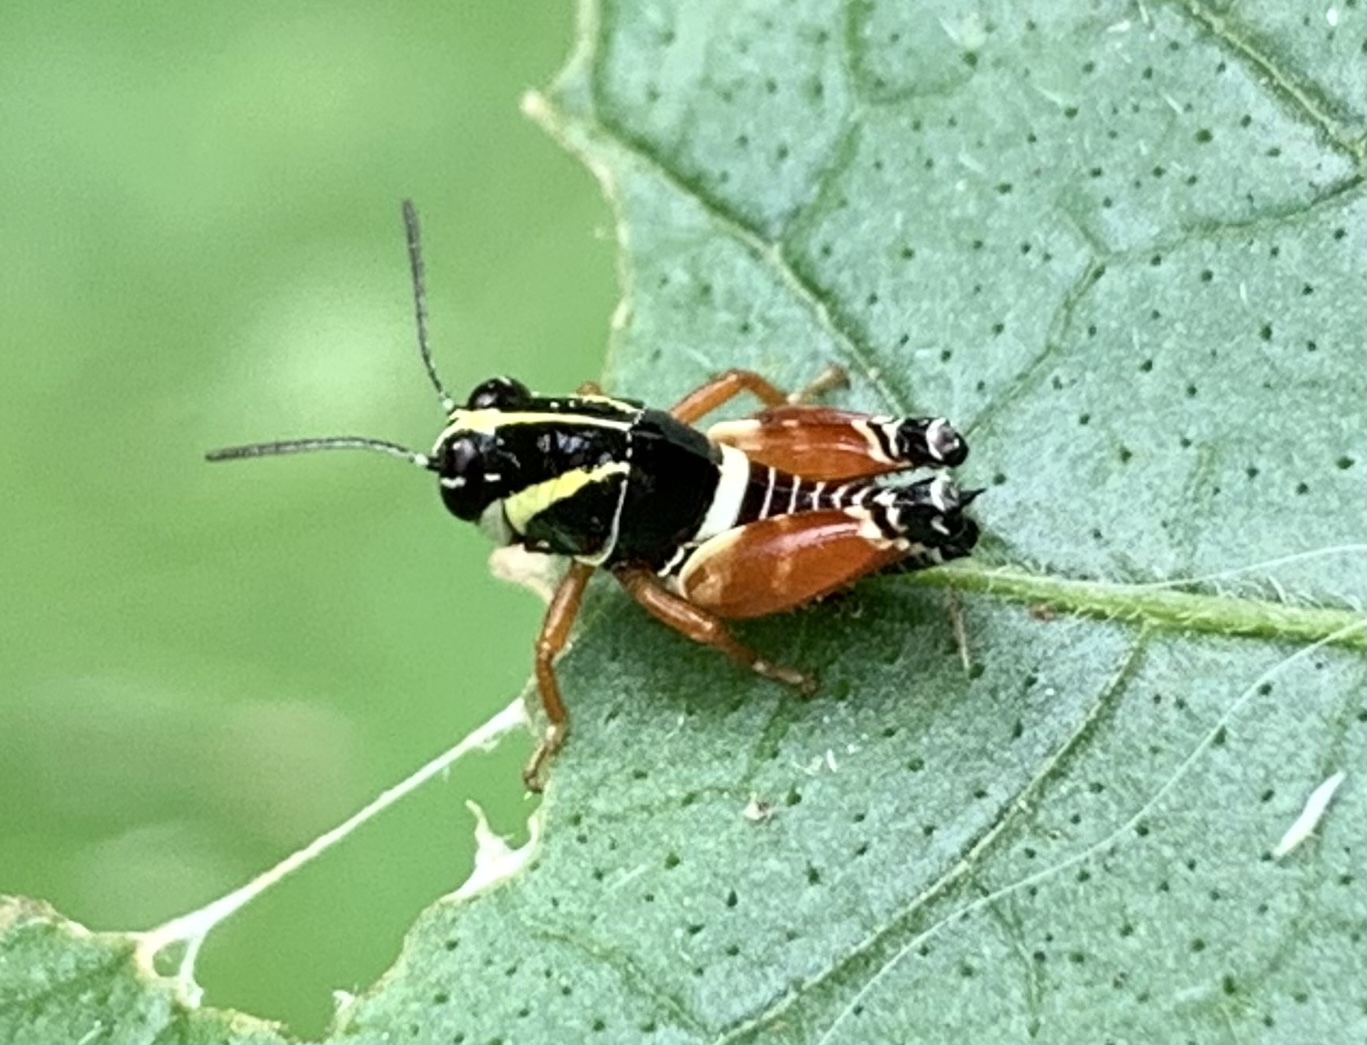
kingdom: Animalia
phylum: Arthropoda
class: Insecta
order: Orthoptera
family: Acrididae
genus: Aidemona
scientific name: Aidemona azteca
